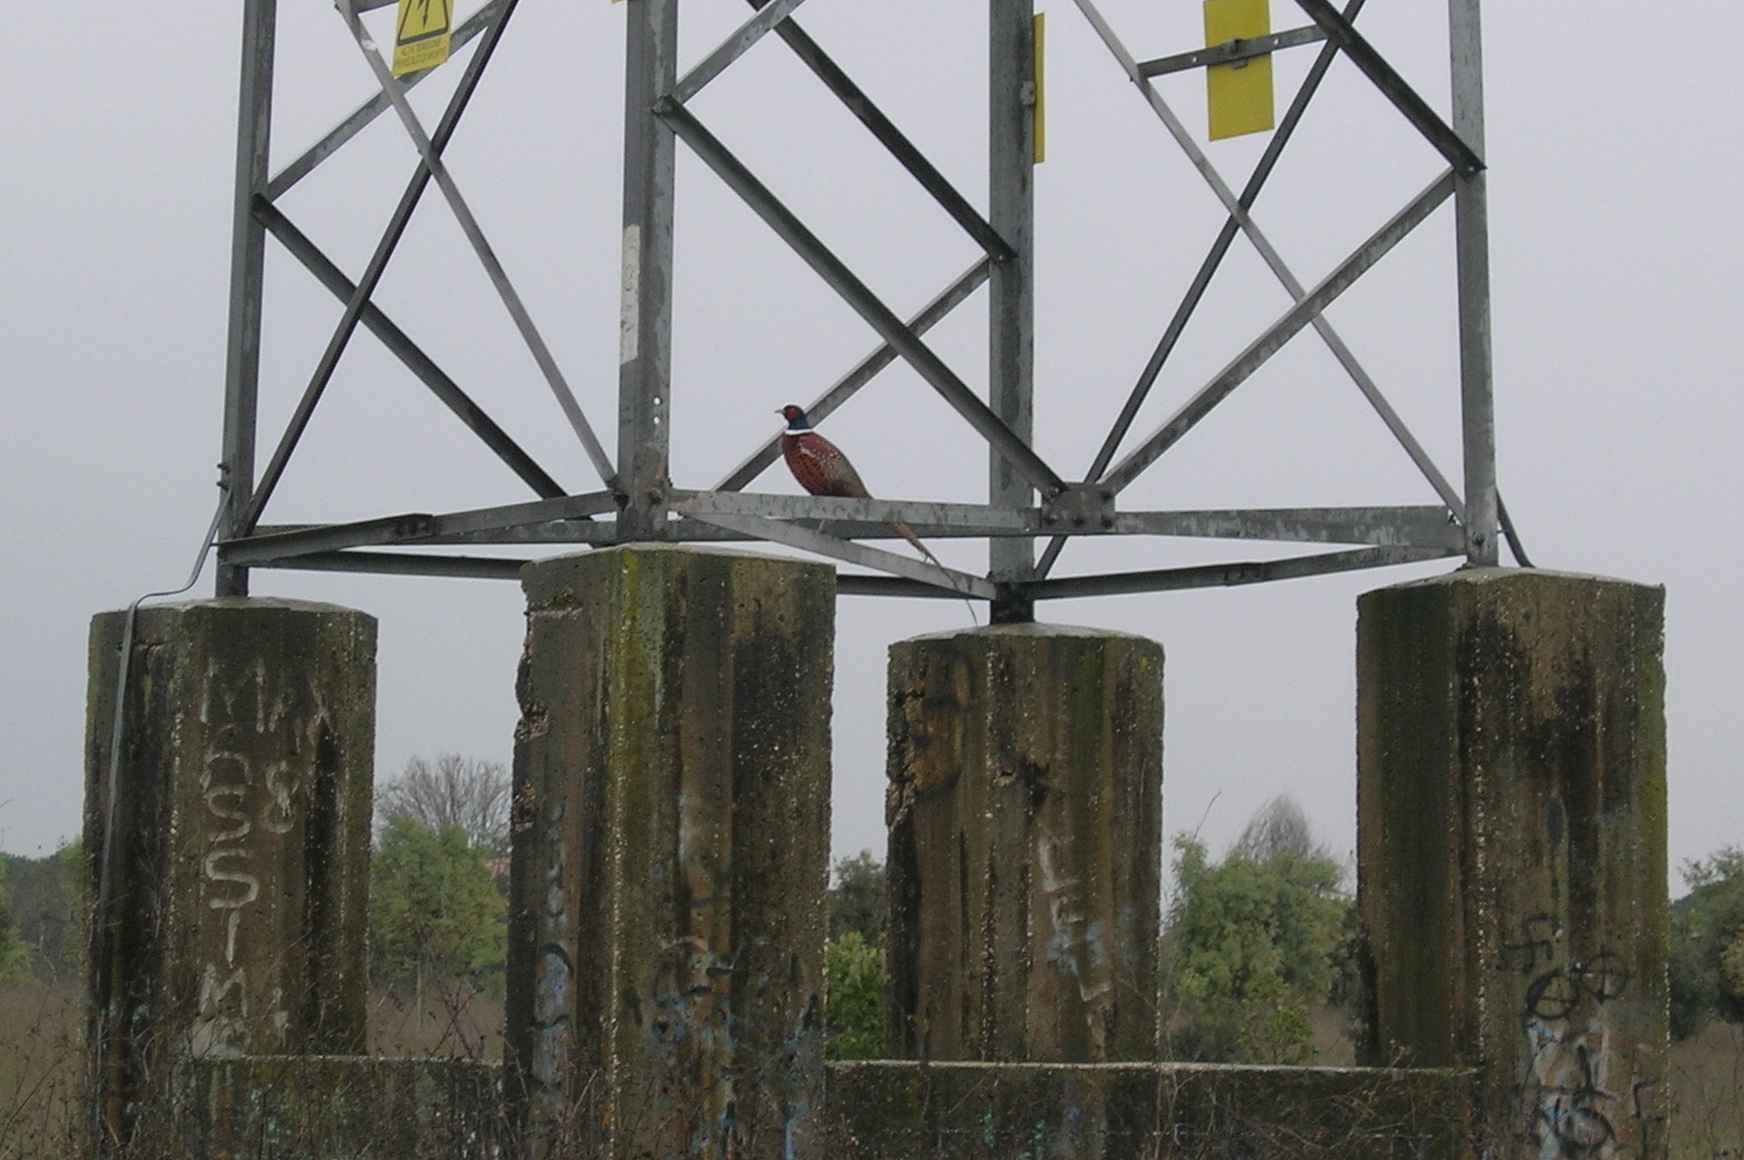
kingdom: Animalia
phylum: Chordata
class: Aves
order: Galliformes
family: Phasianidae
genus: Phasianus
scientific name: Phasianus colchicus
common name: Common pheasant
